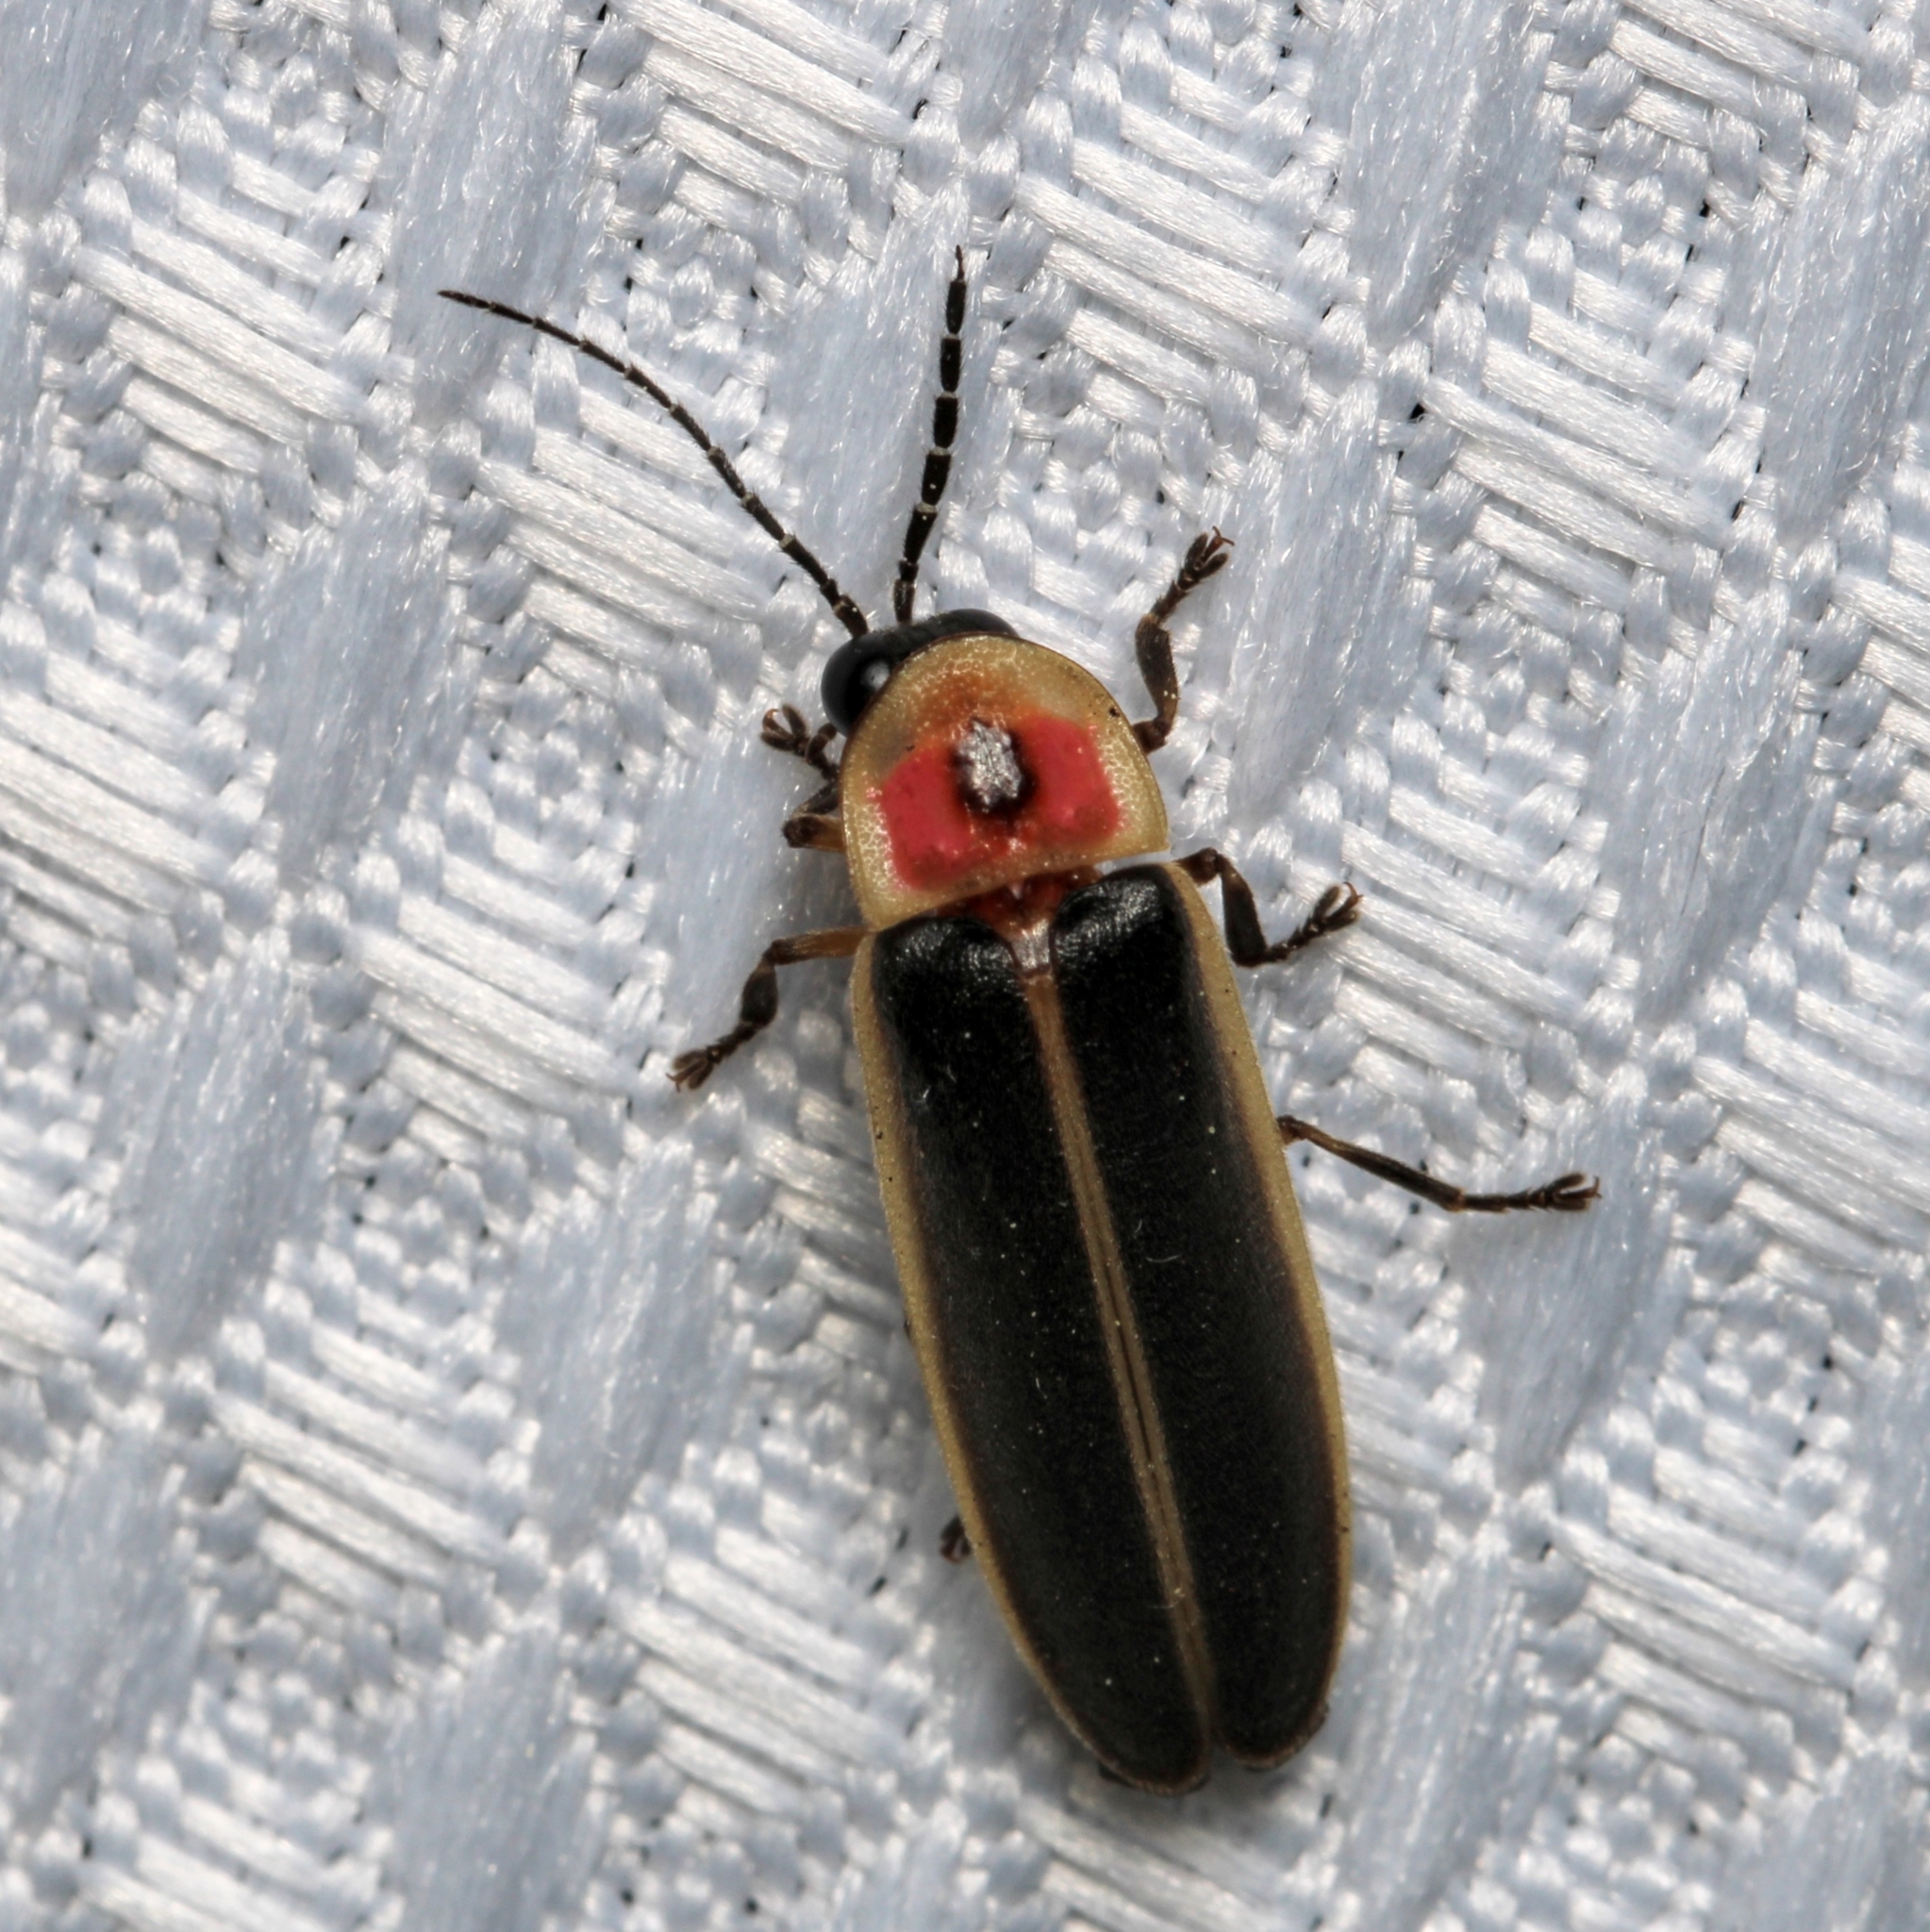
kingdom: Animalia
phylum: Arthropoda
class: Insecta
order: Coleoptera
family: Lampyridae
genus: Photinus
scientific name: Photinus pyralis
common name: Big dipper firefly
